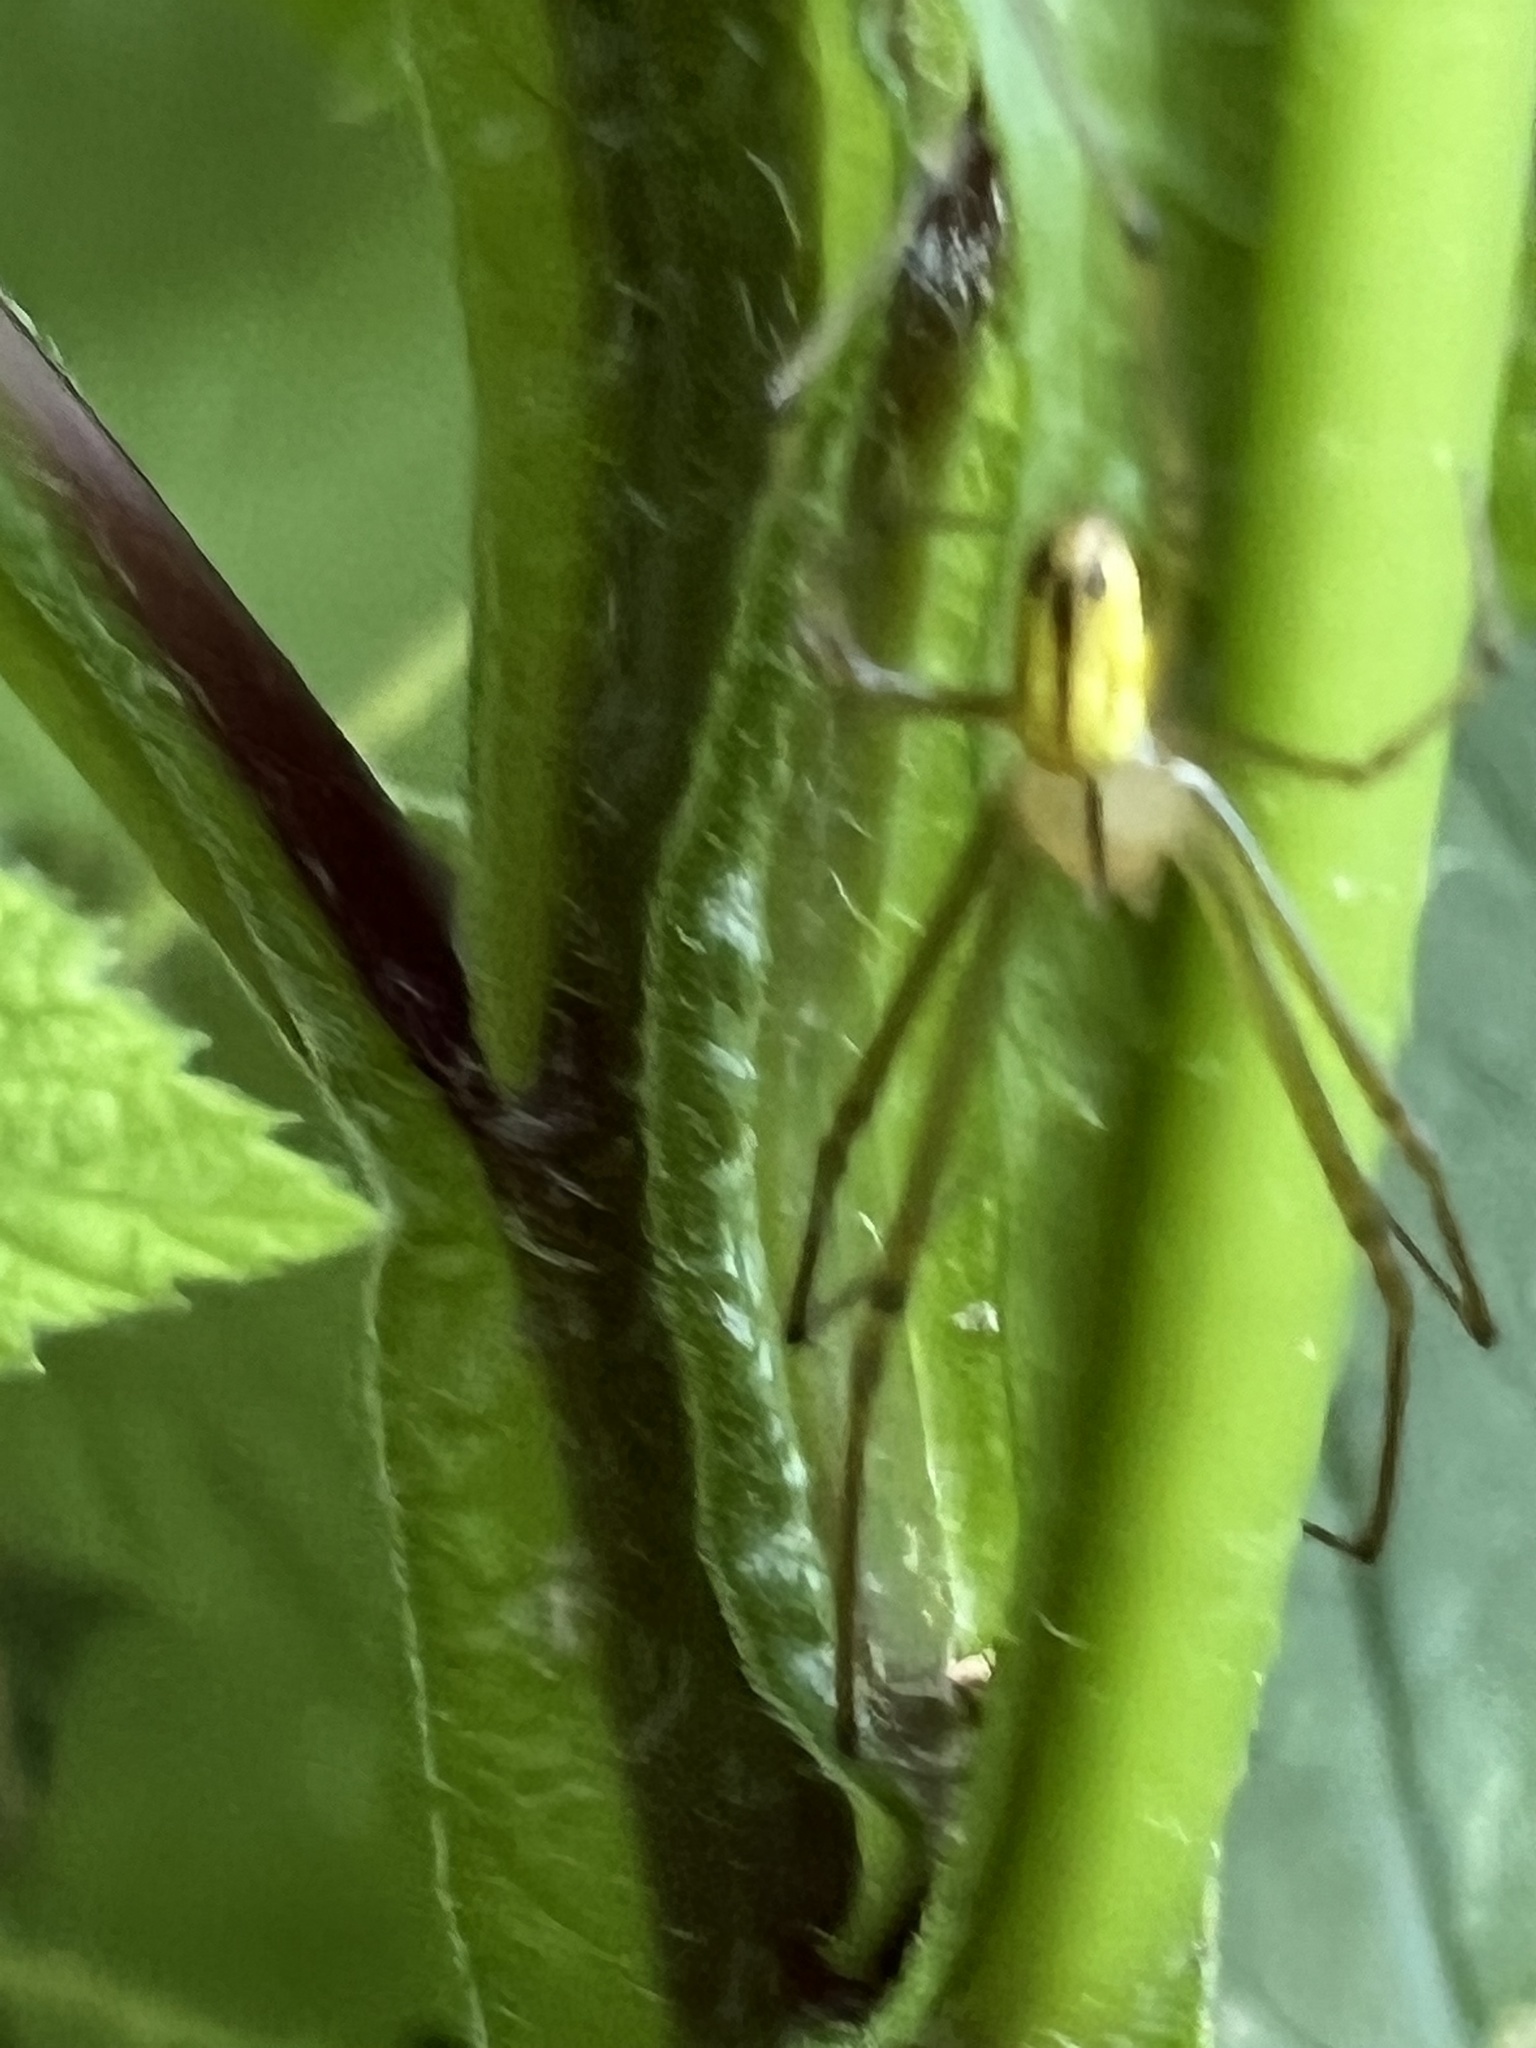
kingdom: Animalia
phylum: Arthropoda
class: Arachnida
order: Araneae
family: Tetragnathidae
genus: Leucauge
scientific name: Leucauge venusta
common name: Longjawed orb weavers
